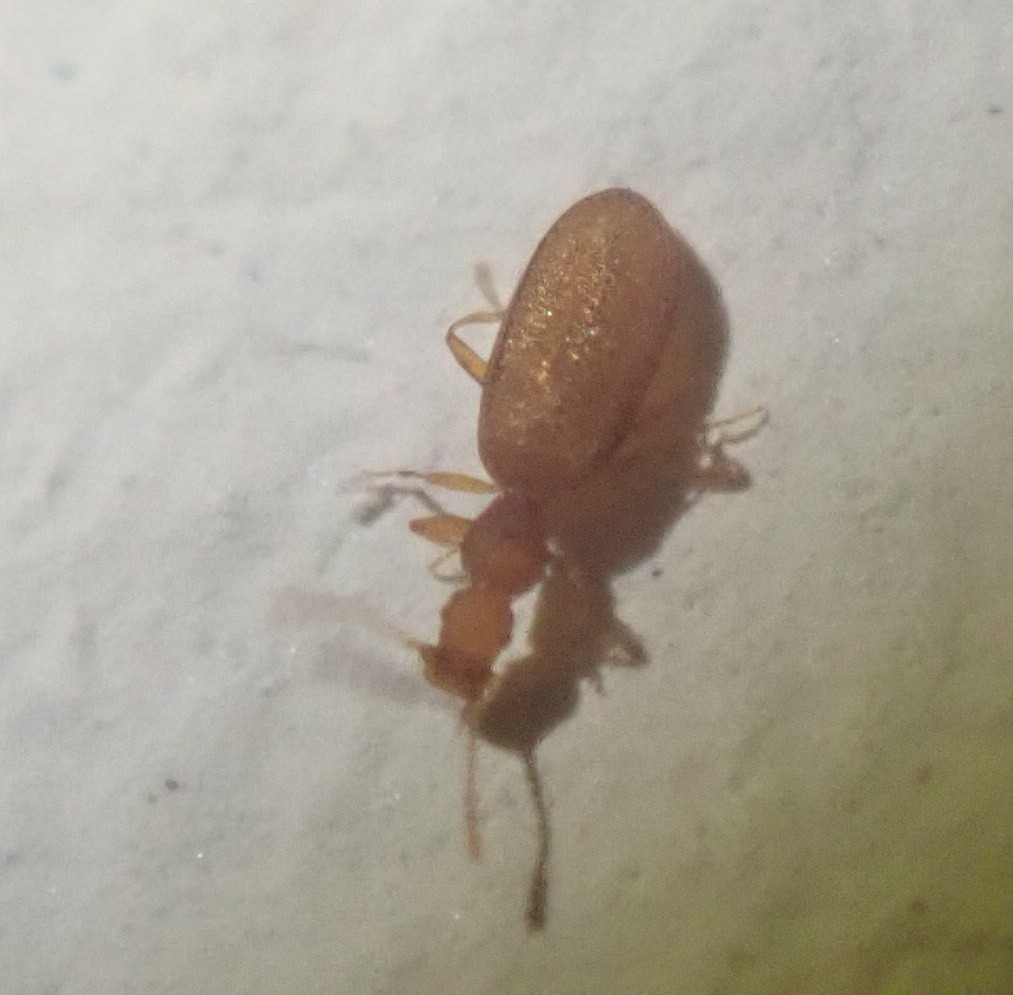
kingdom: Animalia
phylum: Arthropoda
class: Insecta
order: Coleoptera
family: Latridiidae
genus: Adistemia
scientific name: Adistemia watsoni
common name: Household minute scavenger beetle
